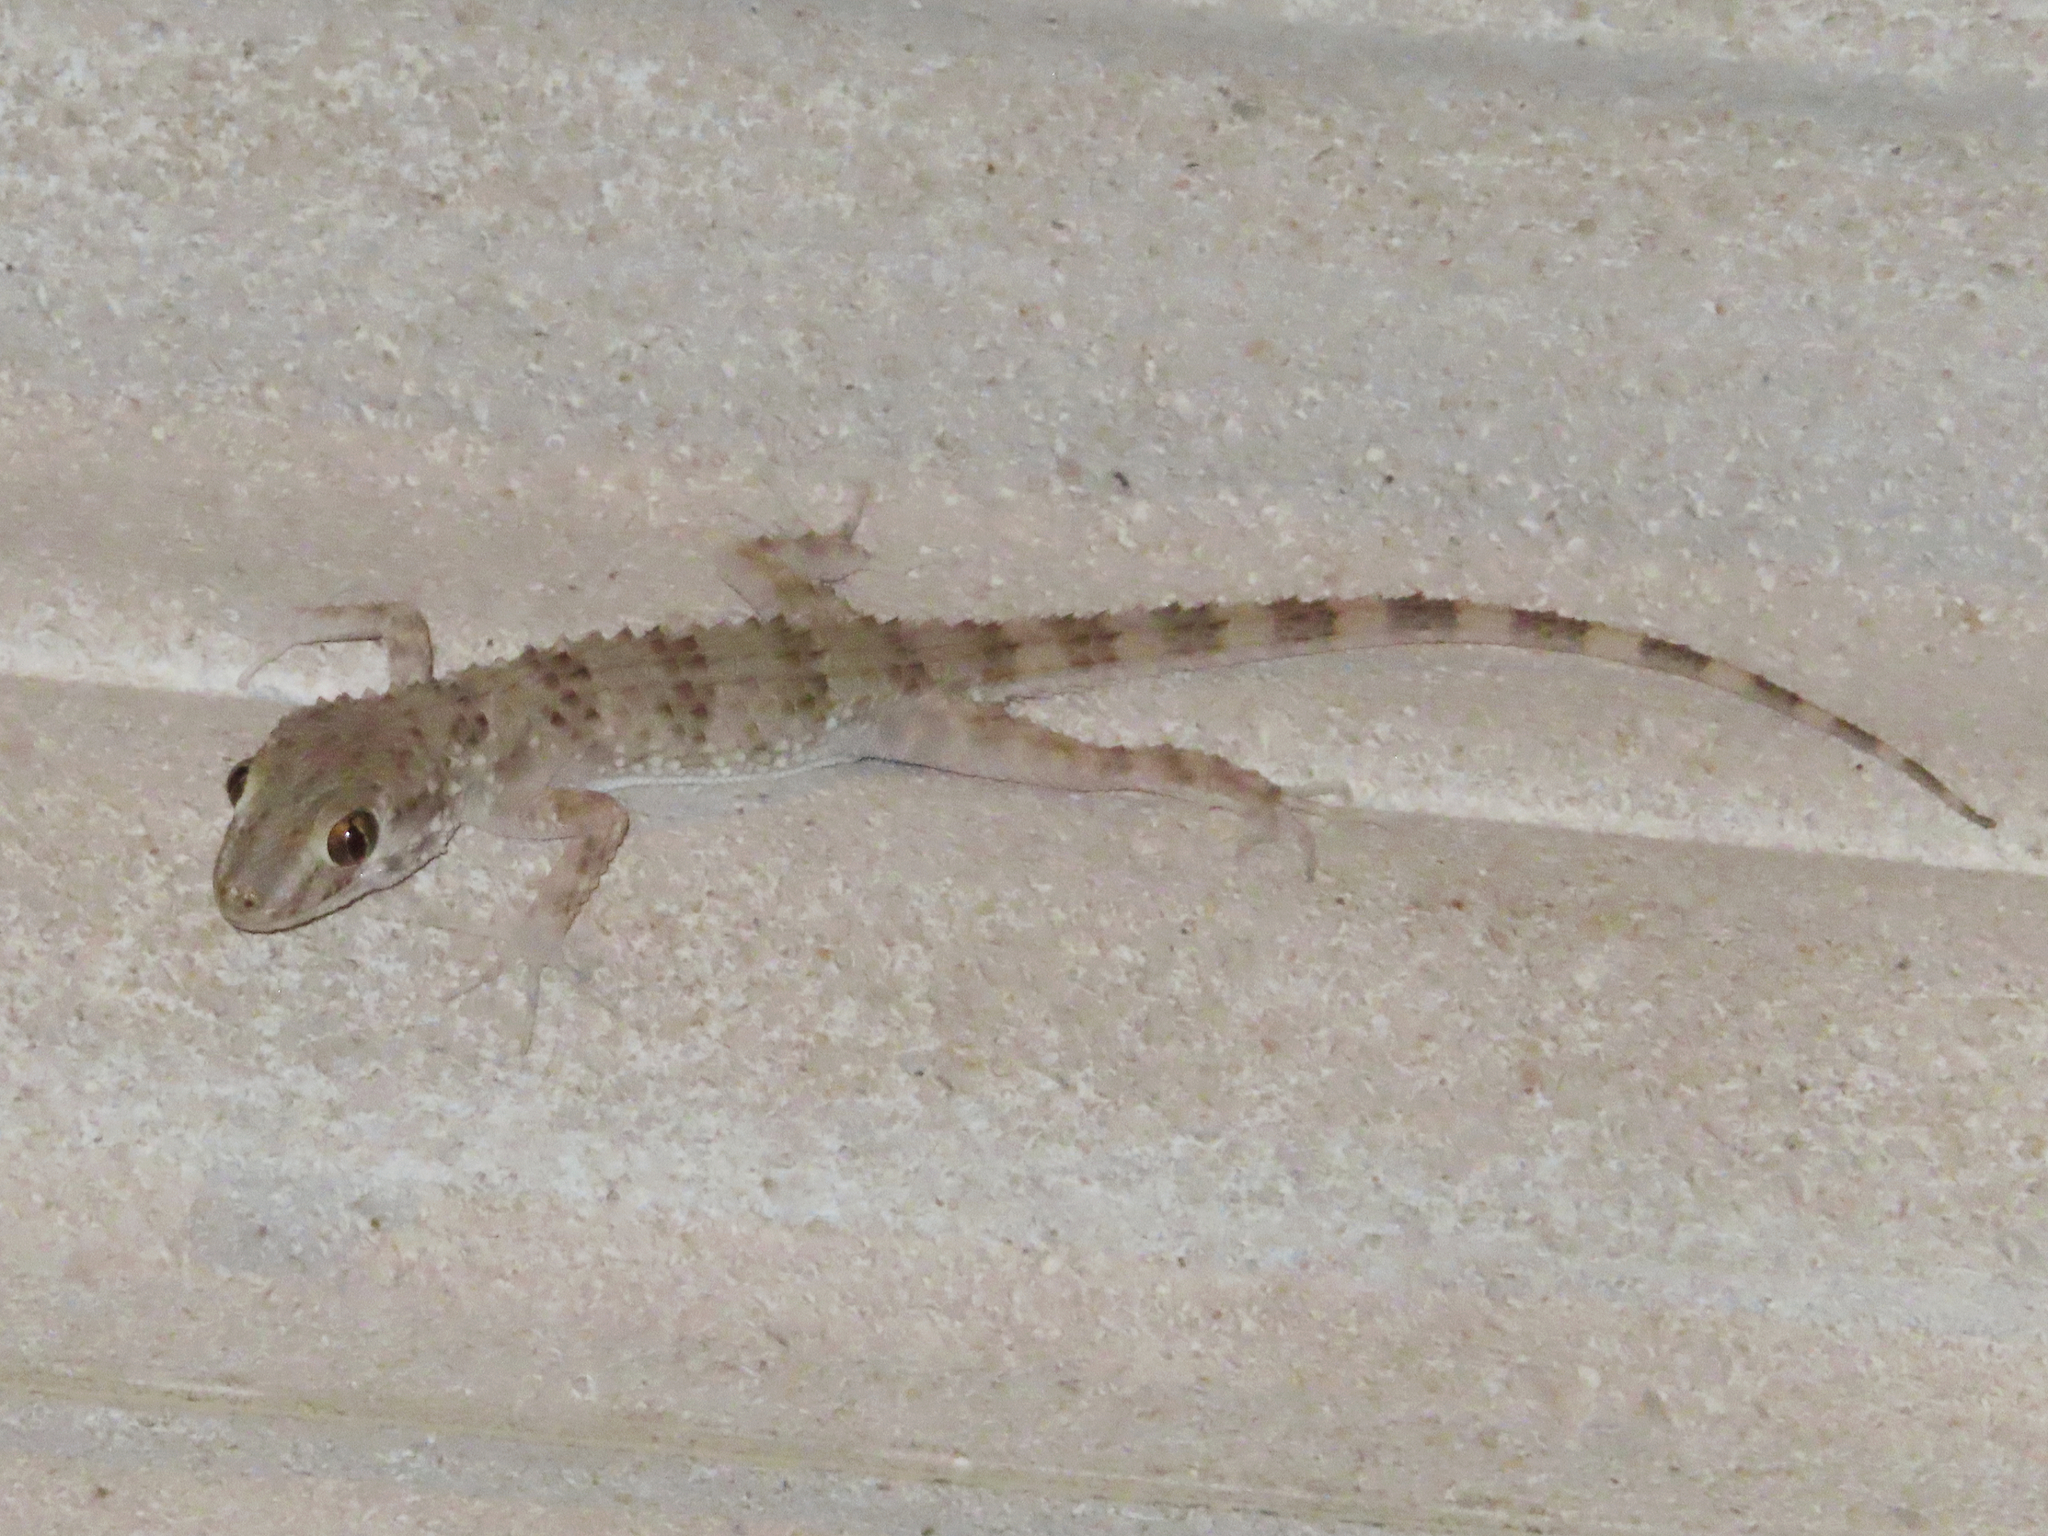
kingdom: Animalia
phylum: Chordata
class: Squamata
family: Gekkonidae
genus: Tenuidactylus
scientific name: Tenuidactylus caspius
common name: Caspian bent-toed gecko
